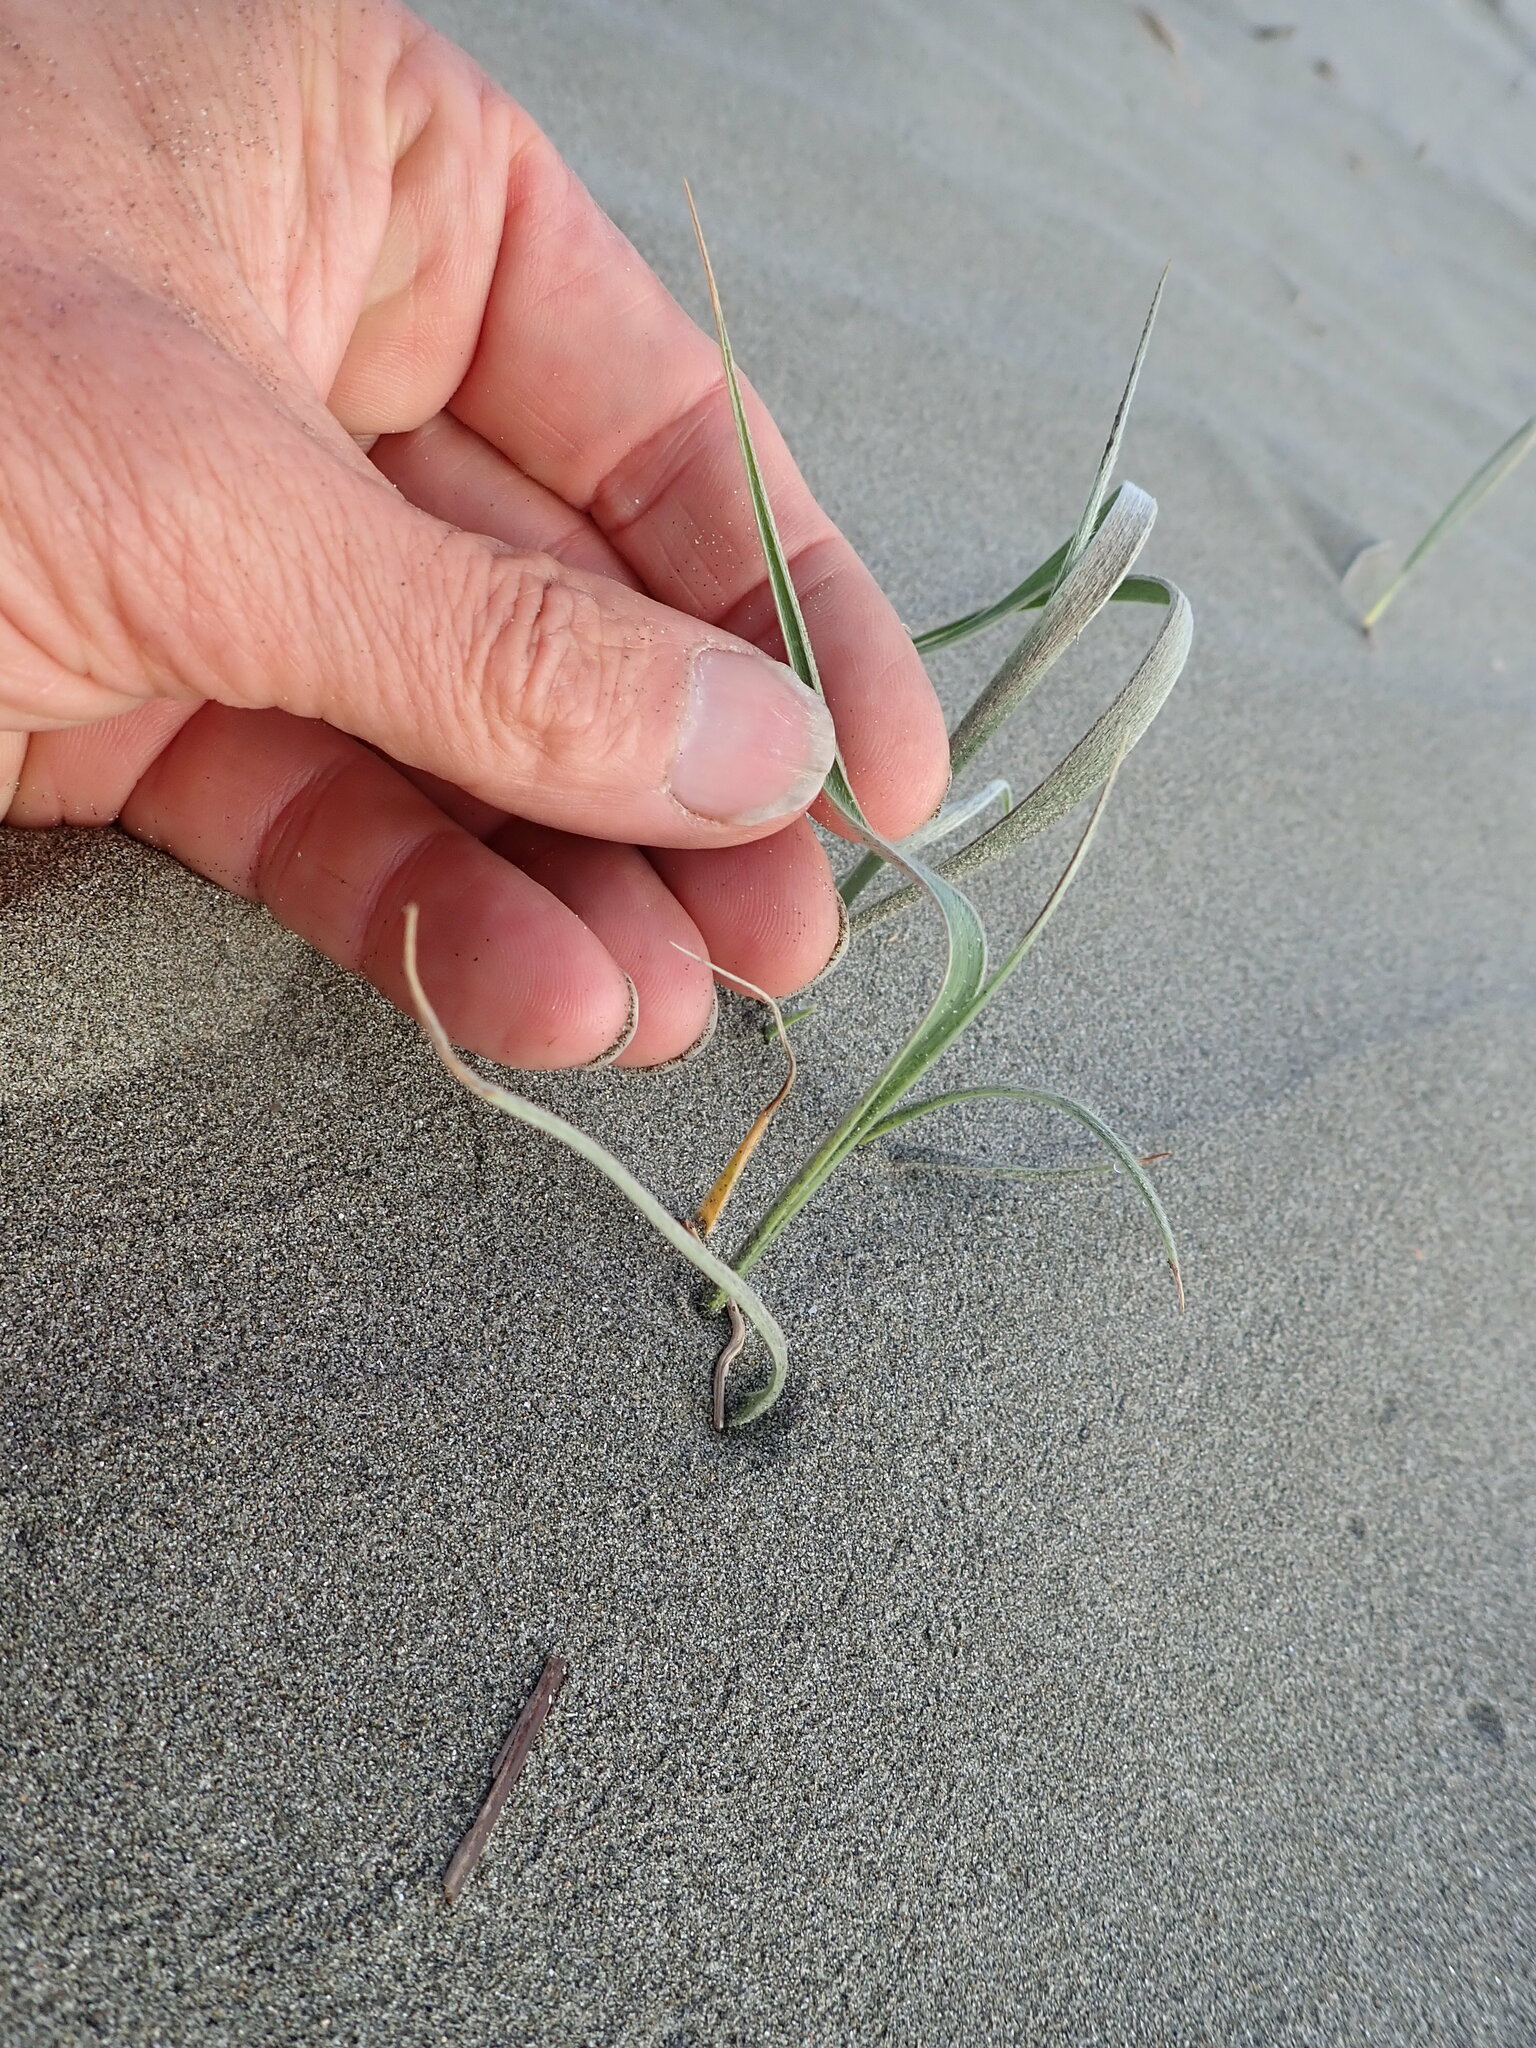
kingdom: Plantae
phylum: Tracheophyta
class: Liliopsida
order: Poales
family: Poaceae
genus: Spinifex
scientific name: Spinifex sericeus
